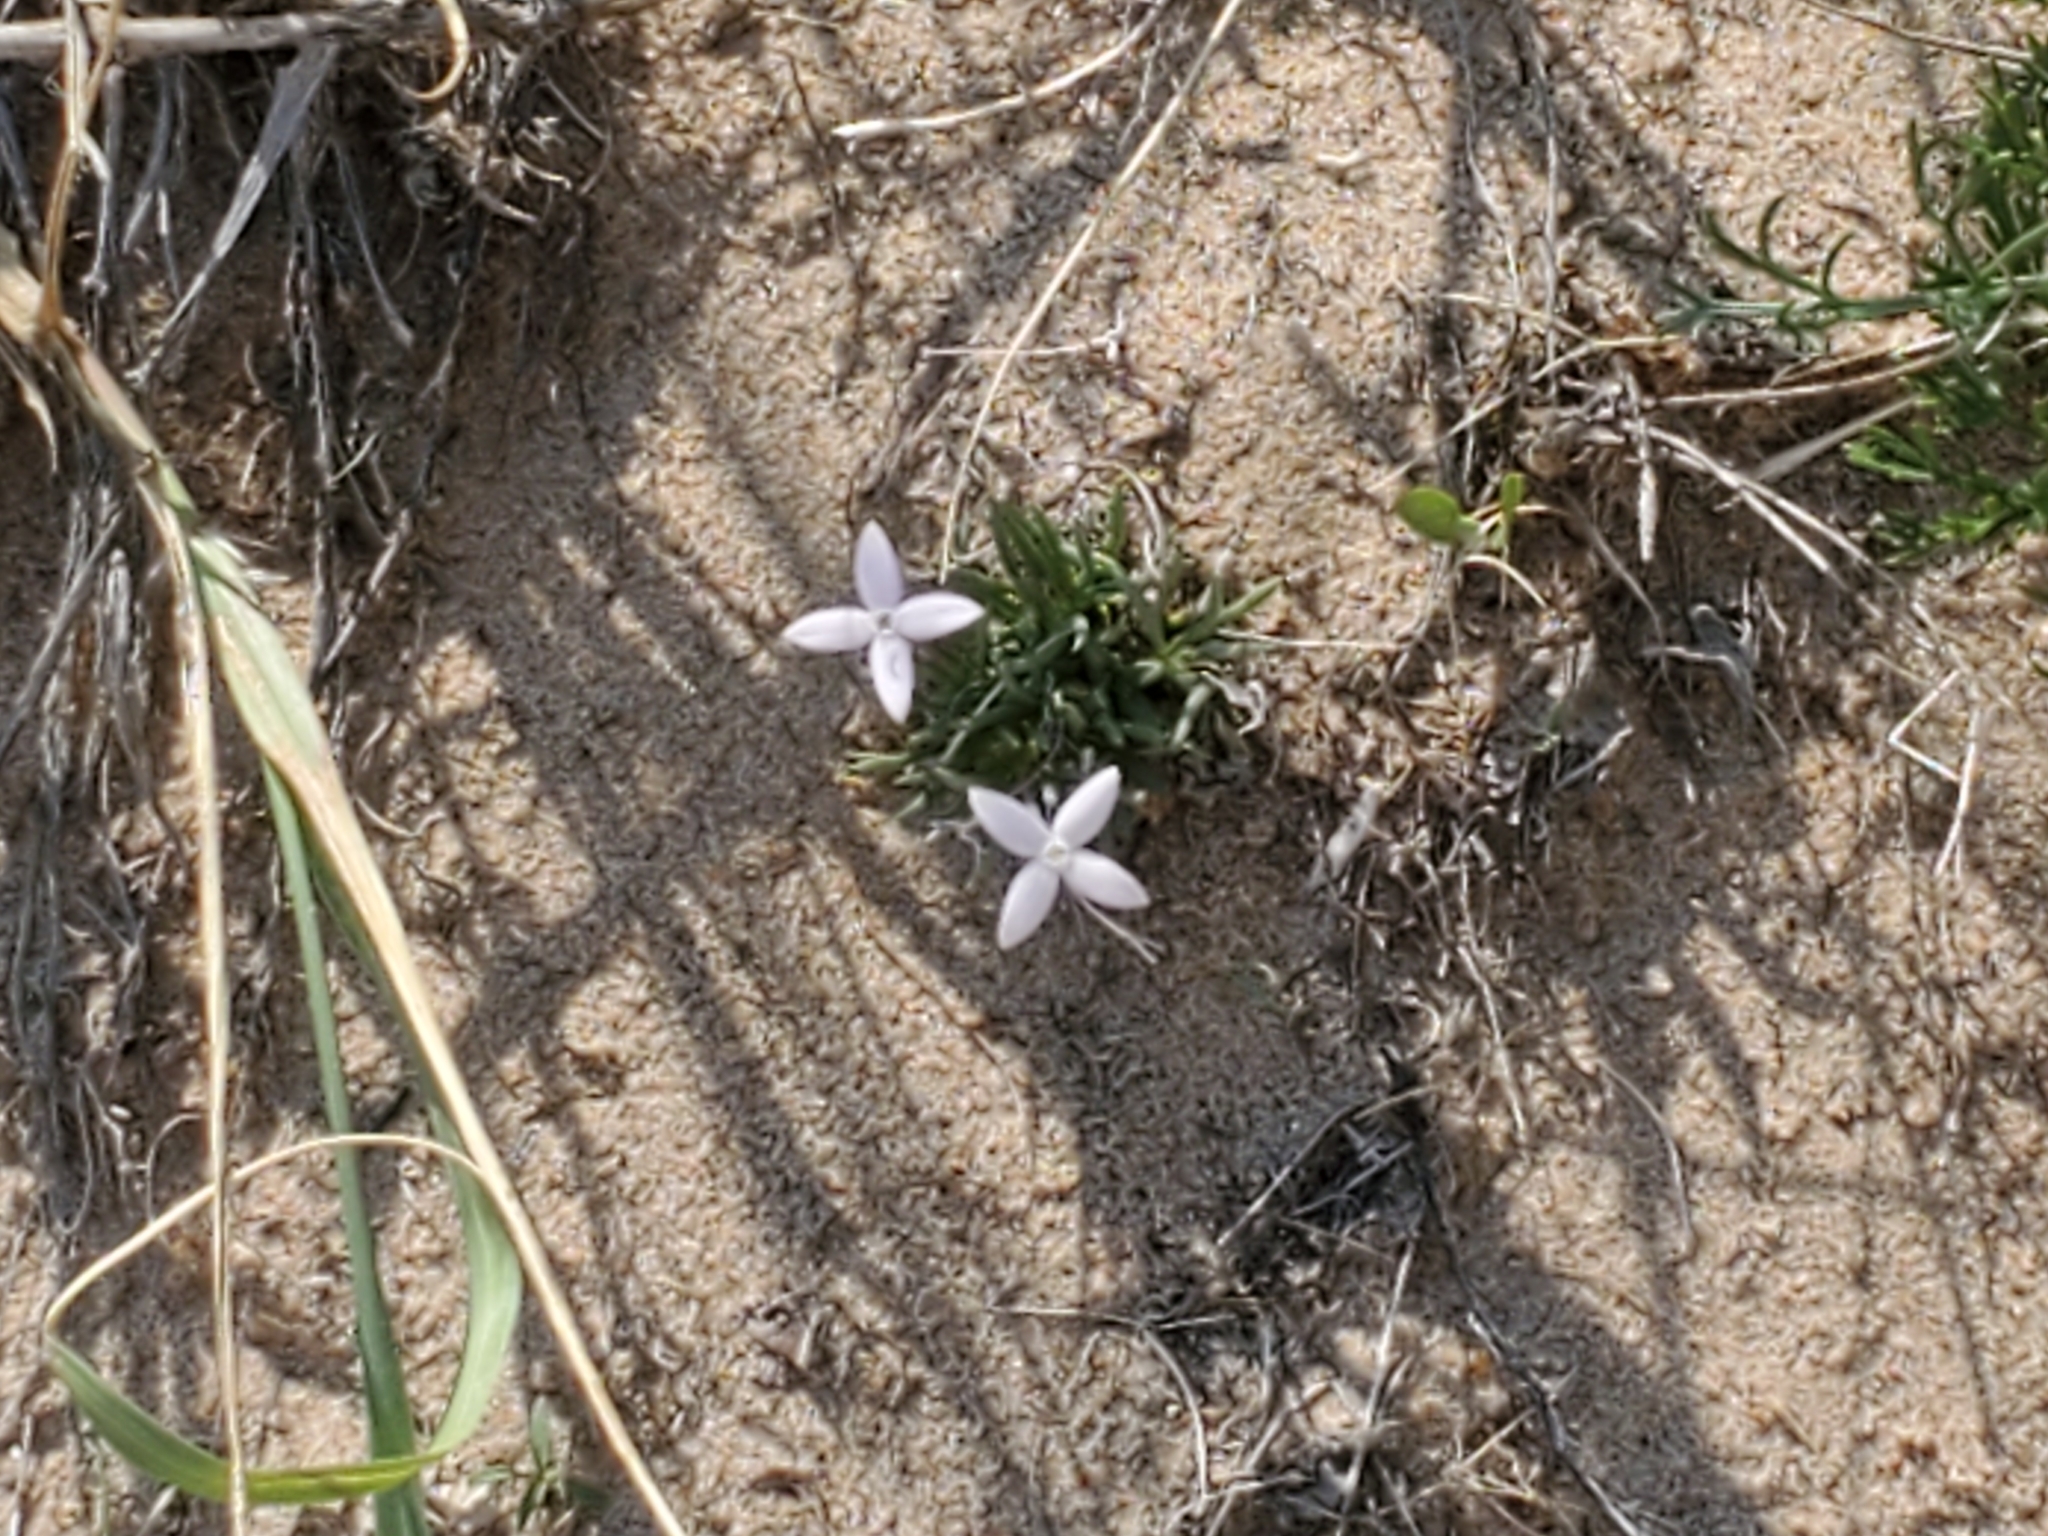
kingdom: Plantae
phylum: Tracheophyta
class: Magnoliopsida
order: Gentianales
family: Rubiaceae
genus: Houstonia
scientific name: Houstonia rubra
